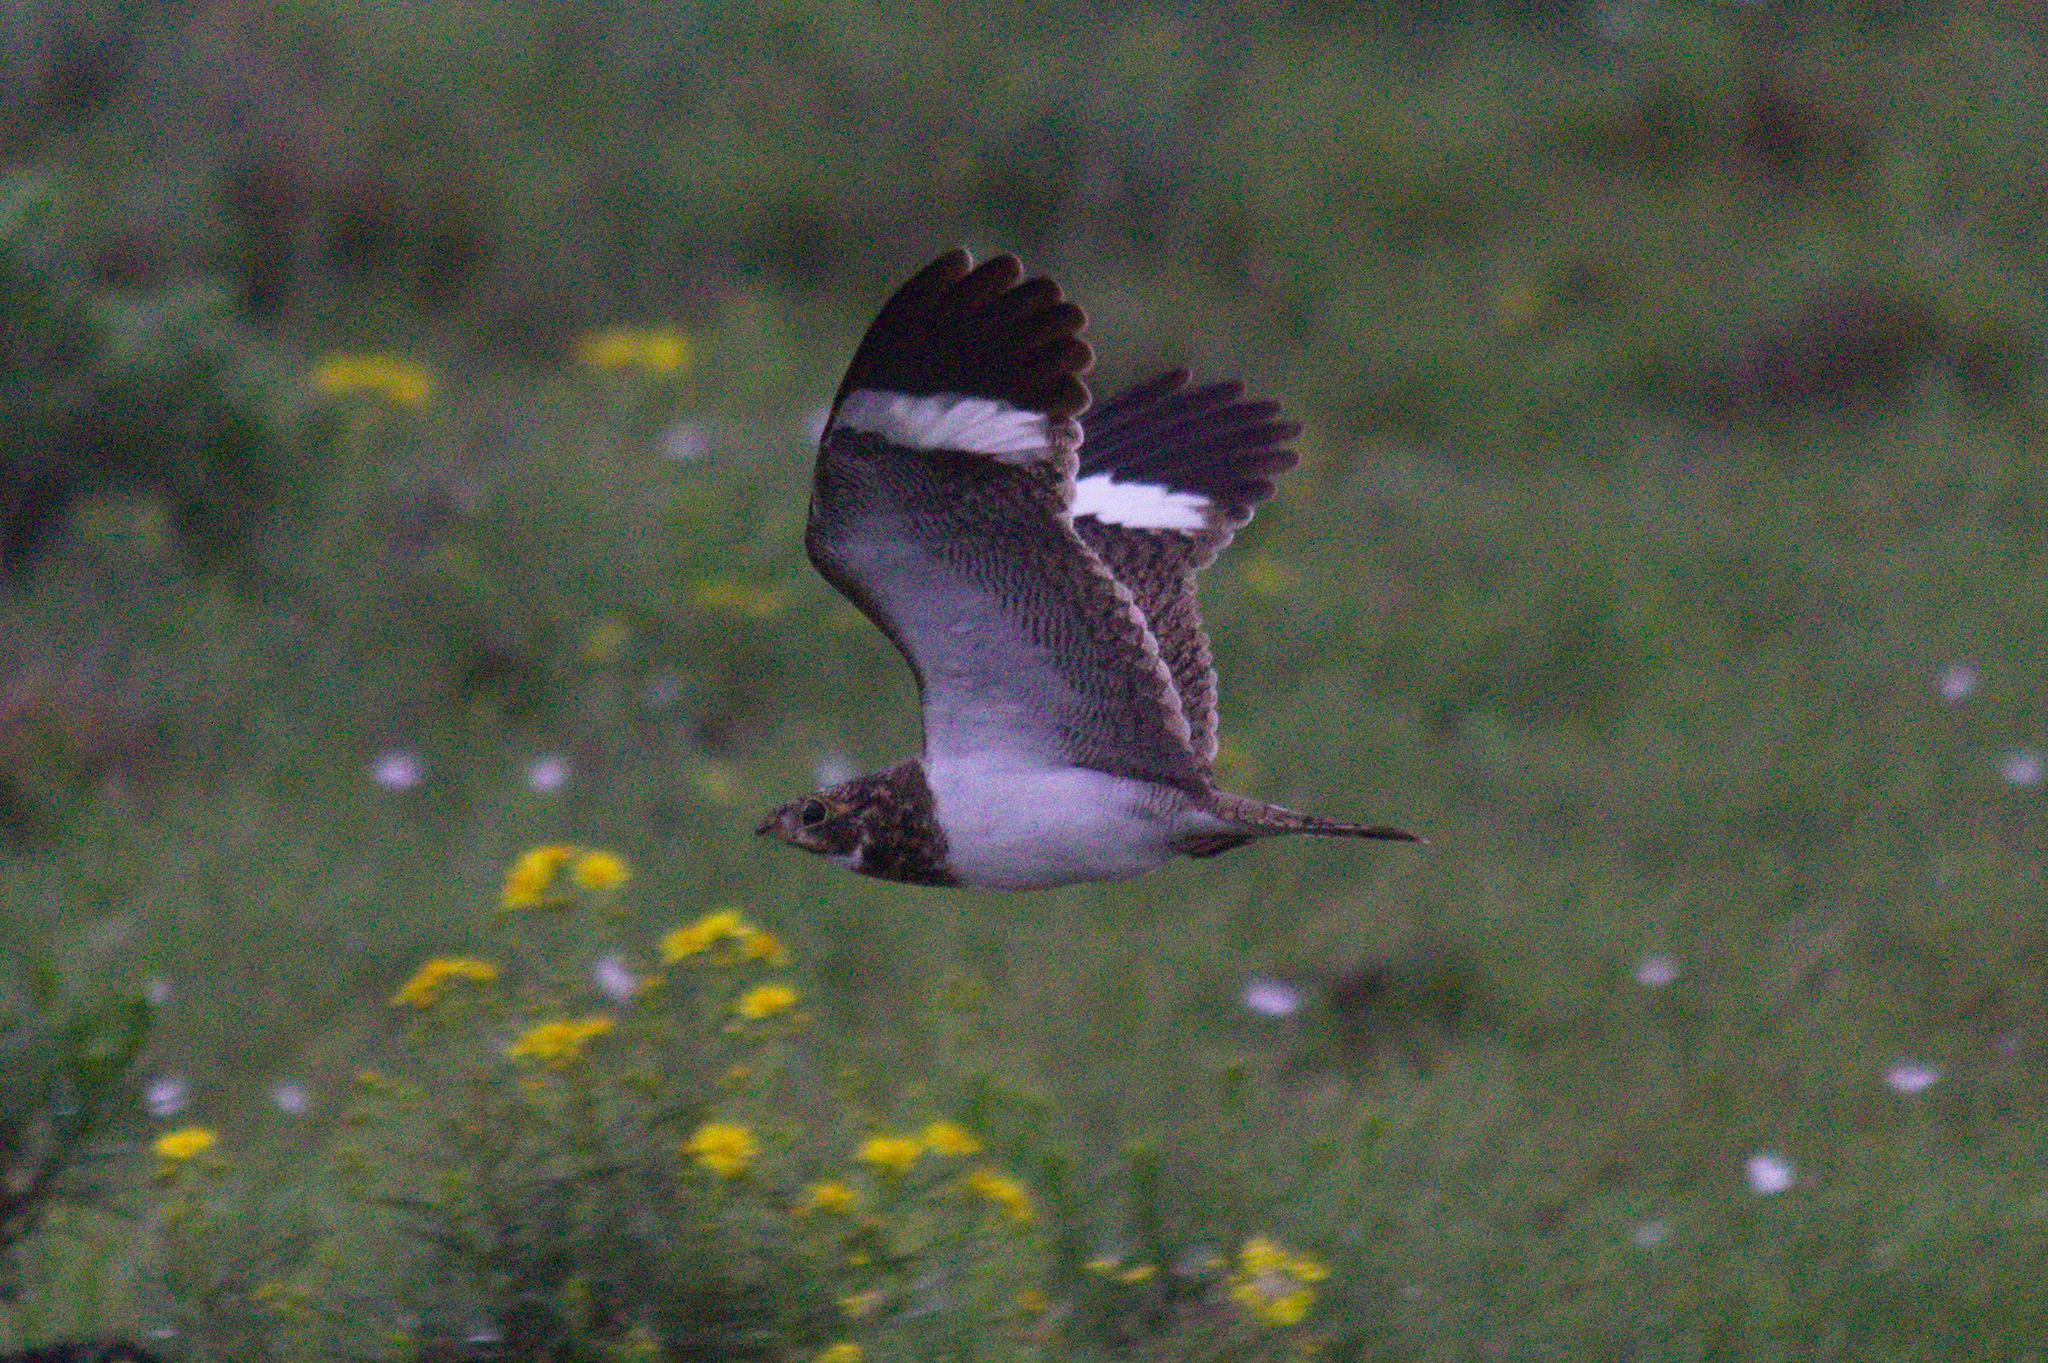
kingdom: Animalia
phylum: Chordata
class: Aves
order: Caprimulgiformes
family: Caprimulgidae
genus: Chordeiles
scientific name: Chordeiles nacunda
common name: Nacunda nighthawk
